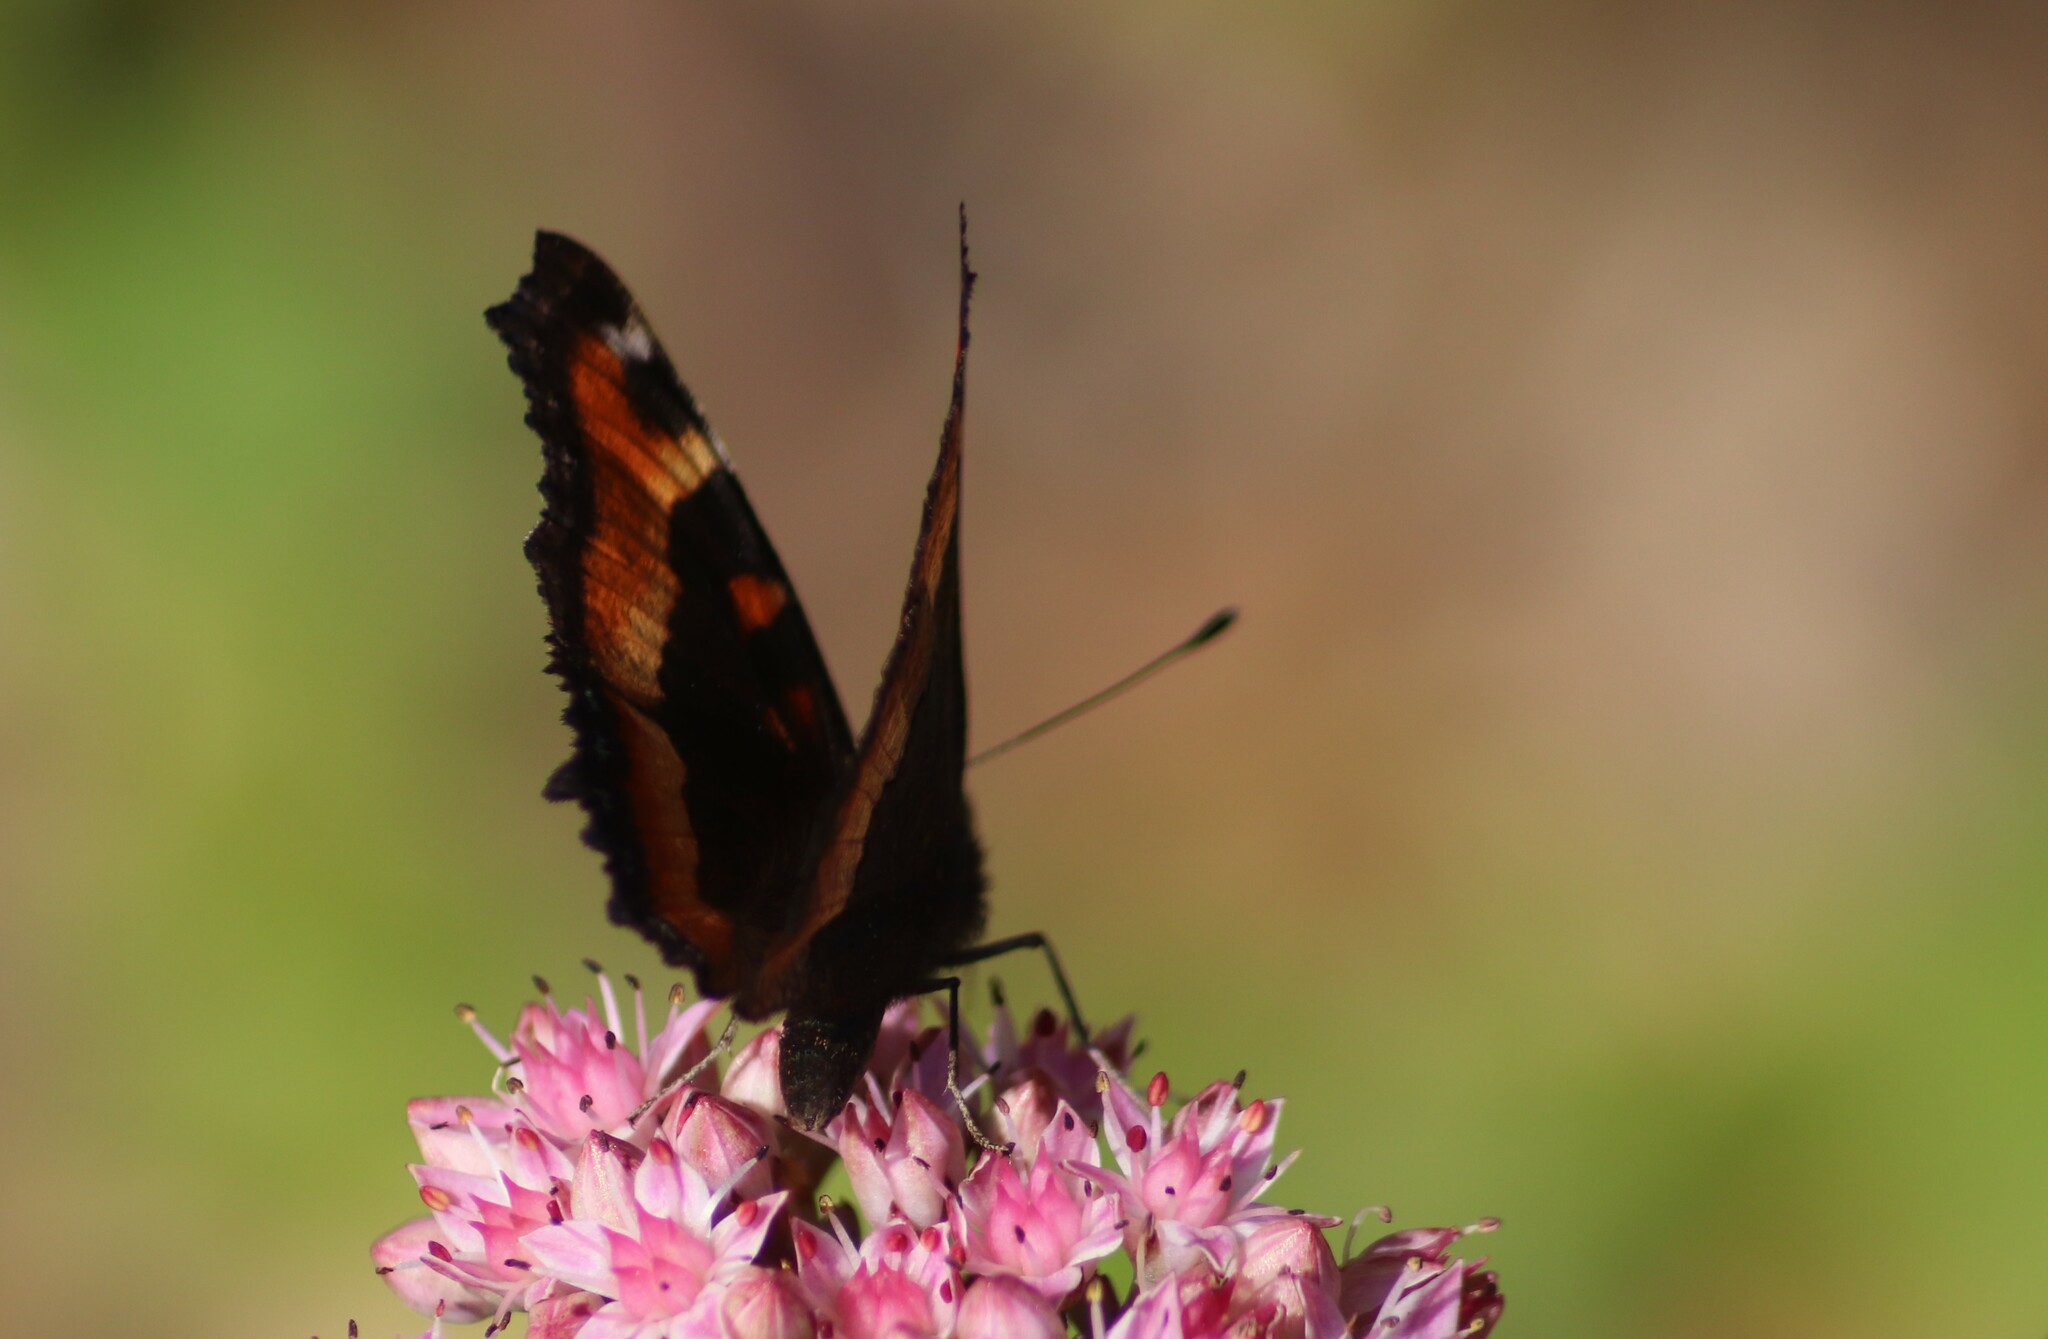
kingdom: Animalia
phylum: Arthropoda
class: Insecta
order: Lepidoptera
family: Nymphalidae
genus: Aglais
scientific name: Aglais milberti
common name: Milbert's tortoiseshell
